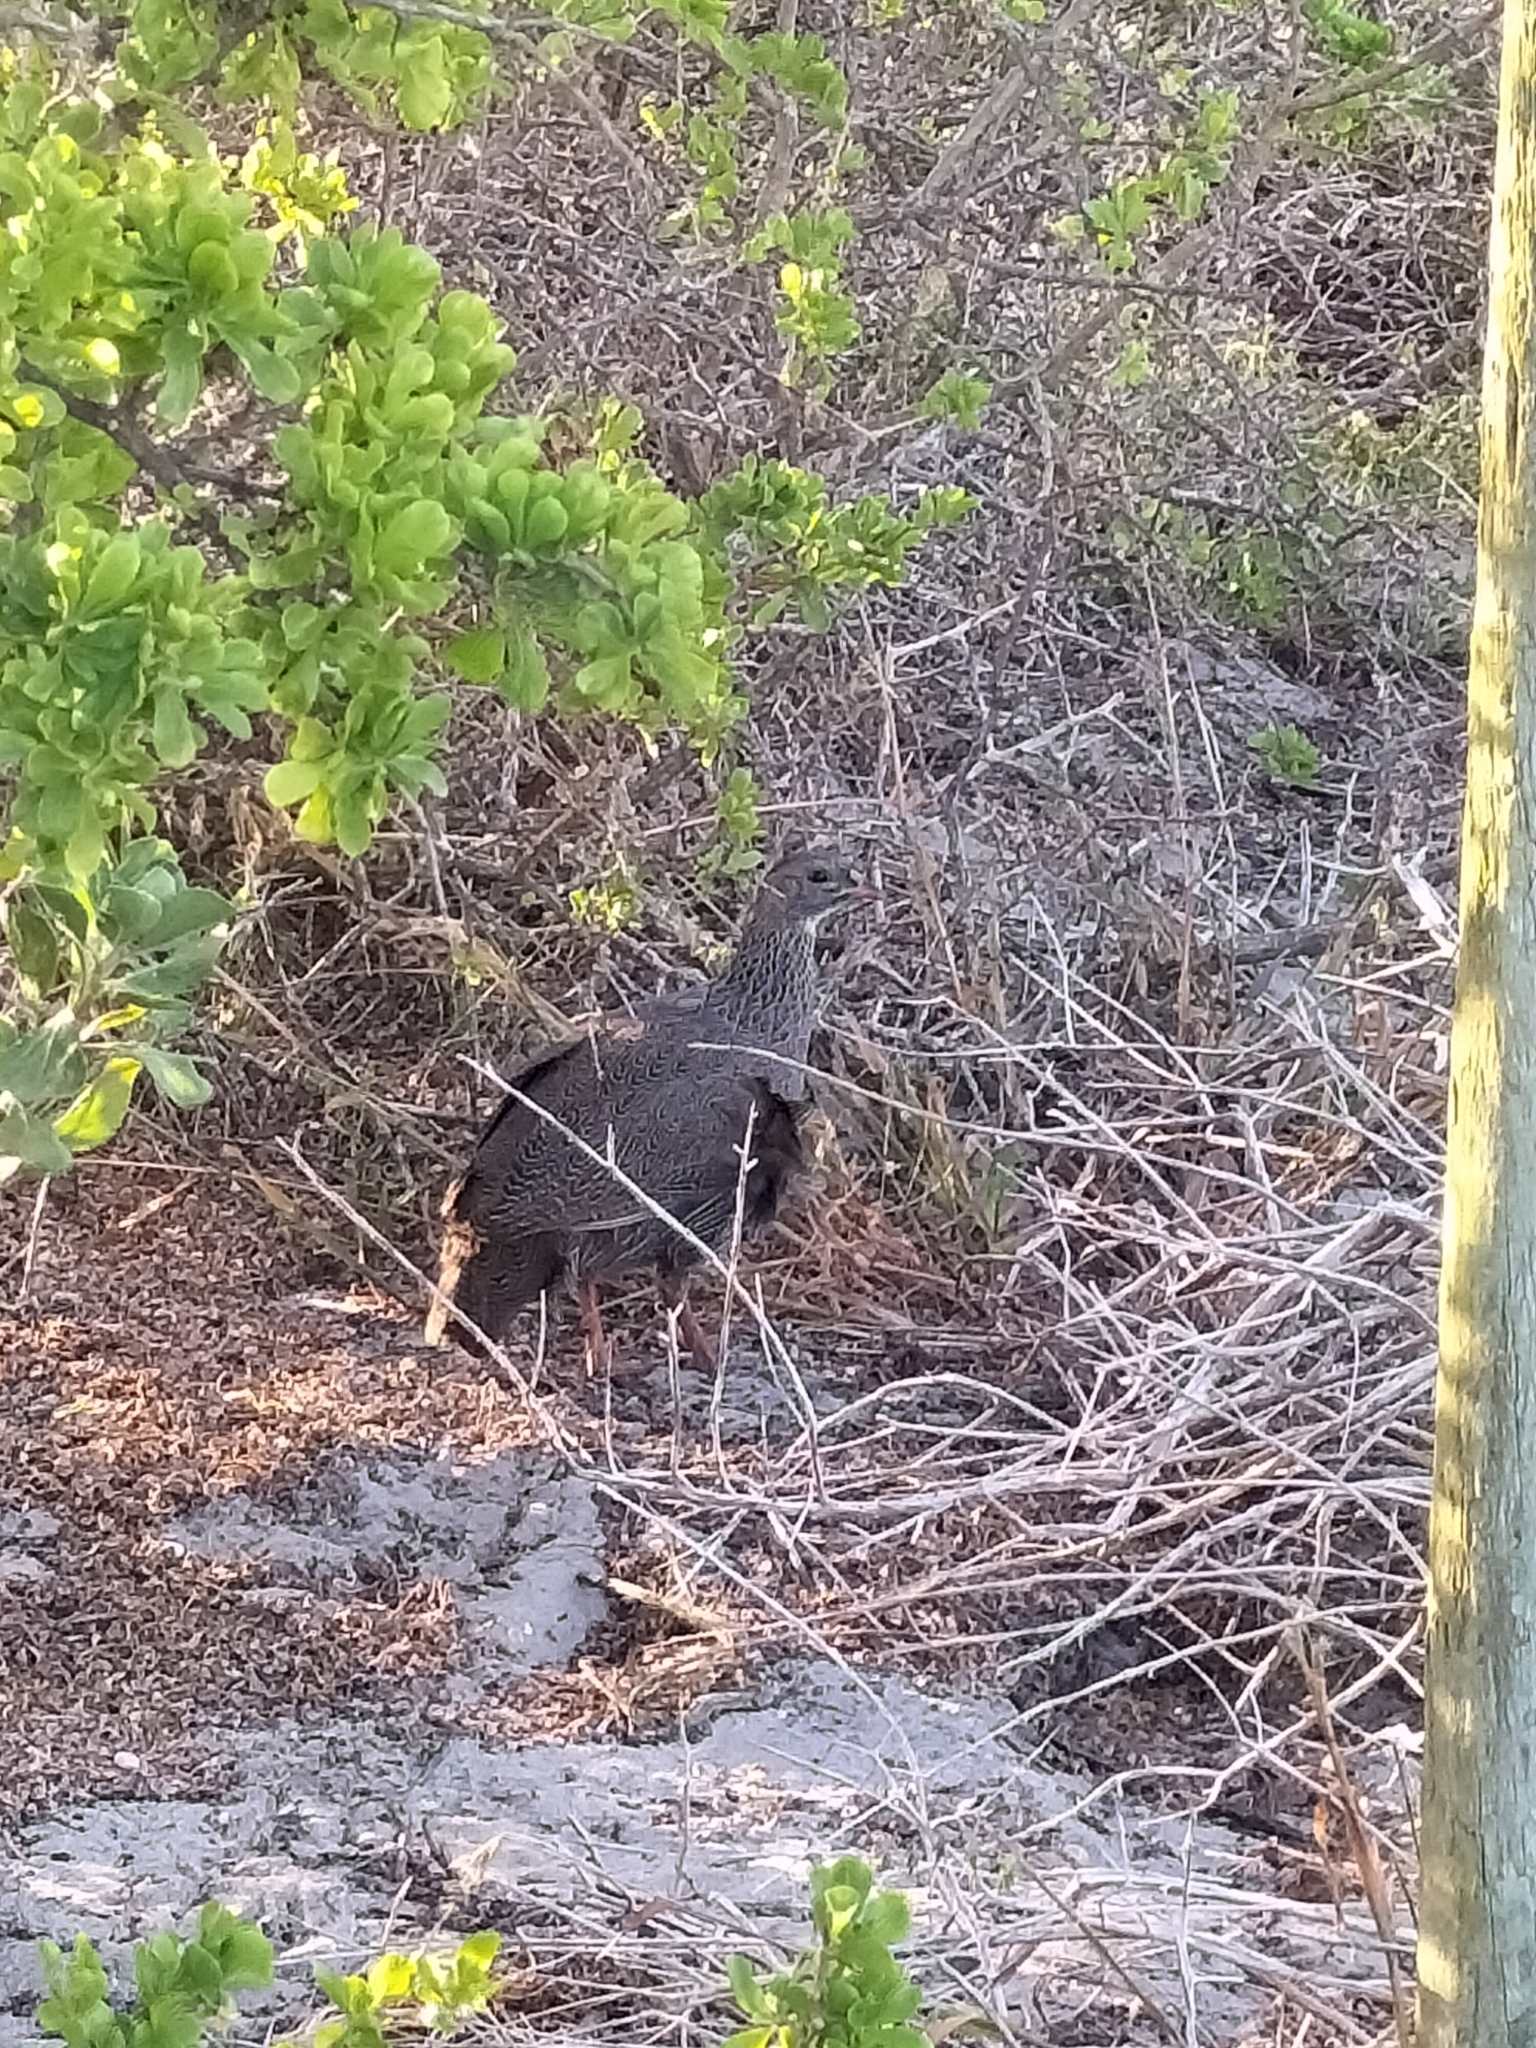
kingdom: Animalia
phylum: Chordata
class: Aves
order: Galliformes
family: Phasianidae
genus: Pternistis
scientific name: Pternistis capensis
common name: Cape spurfowl
